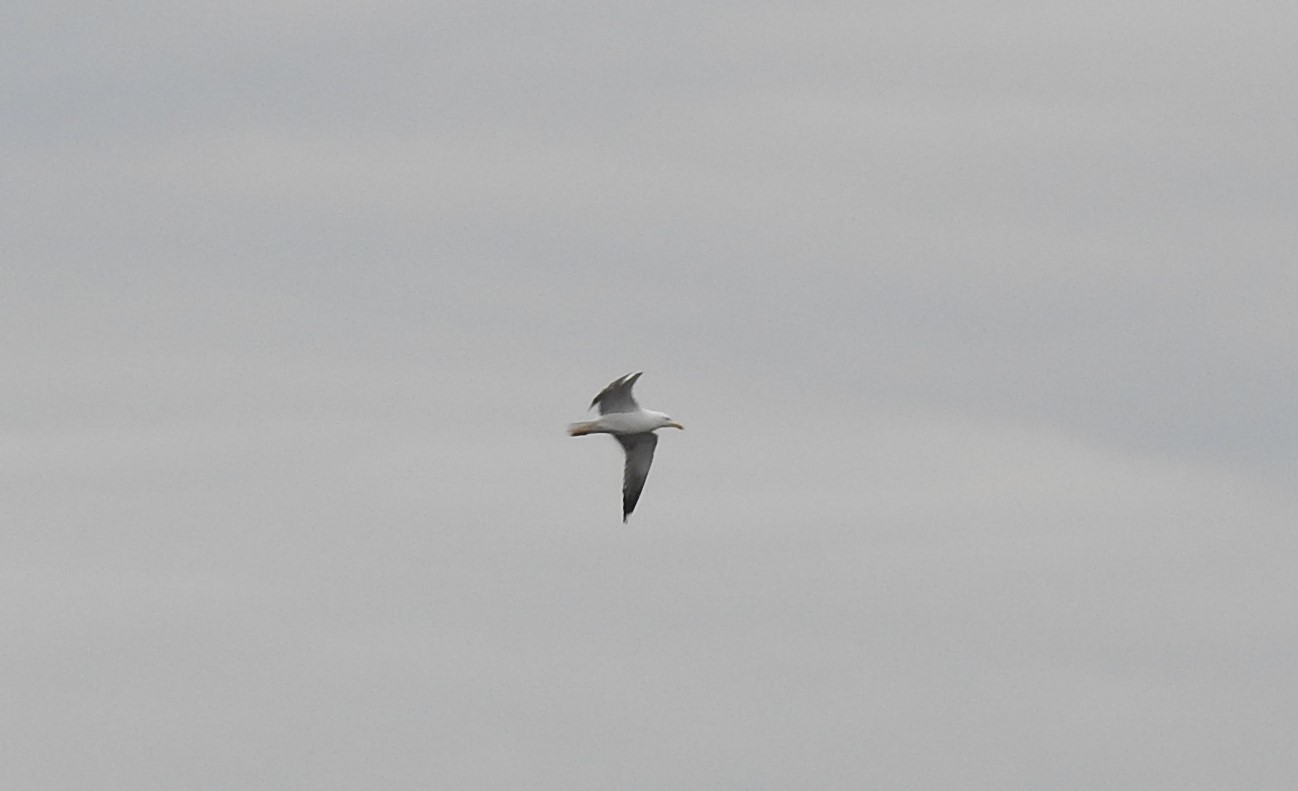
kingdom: Animalia
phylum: Chordata
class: Aves
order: Charadriiformes
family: Laridae
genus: Larus
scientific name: Larus fuscus
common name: Lesser black-backed gull
